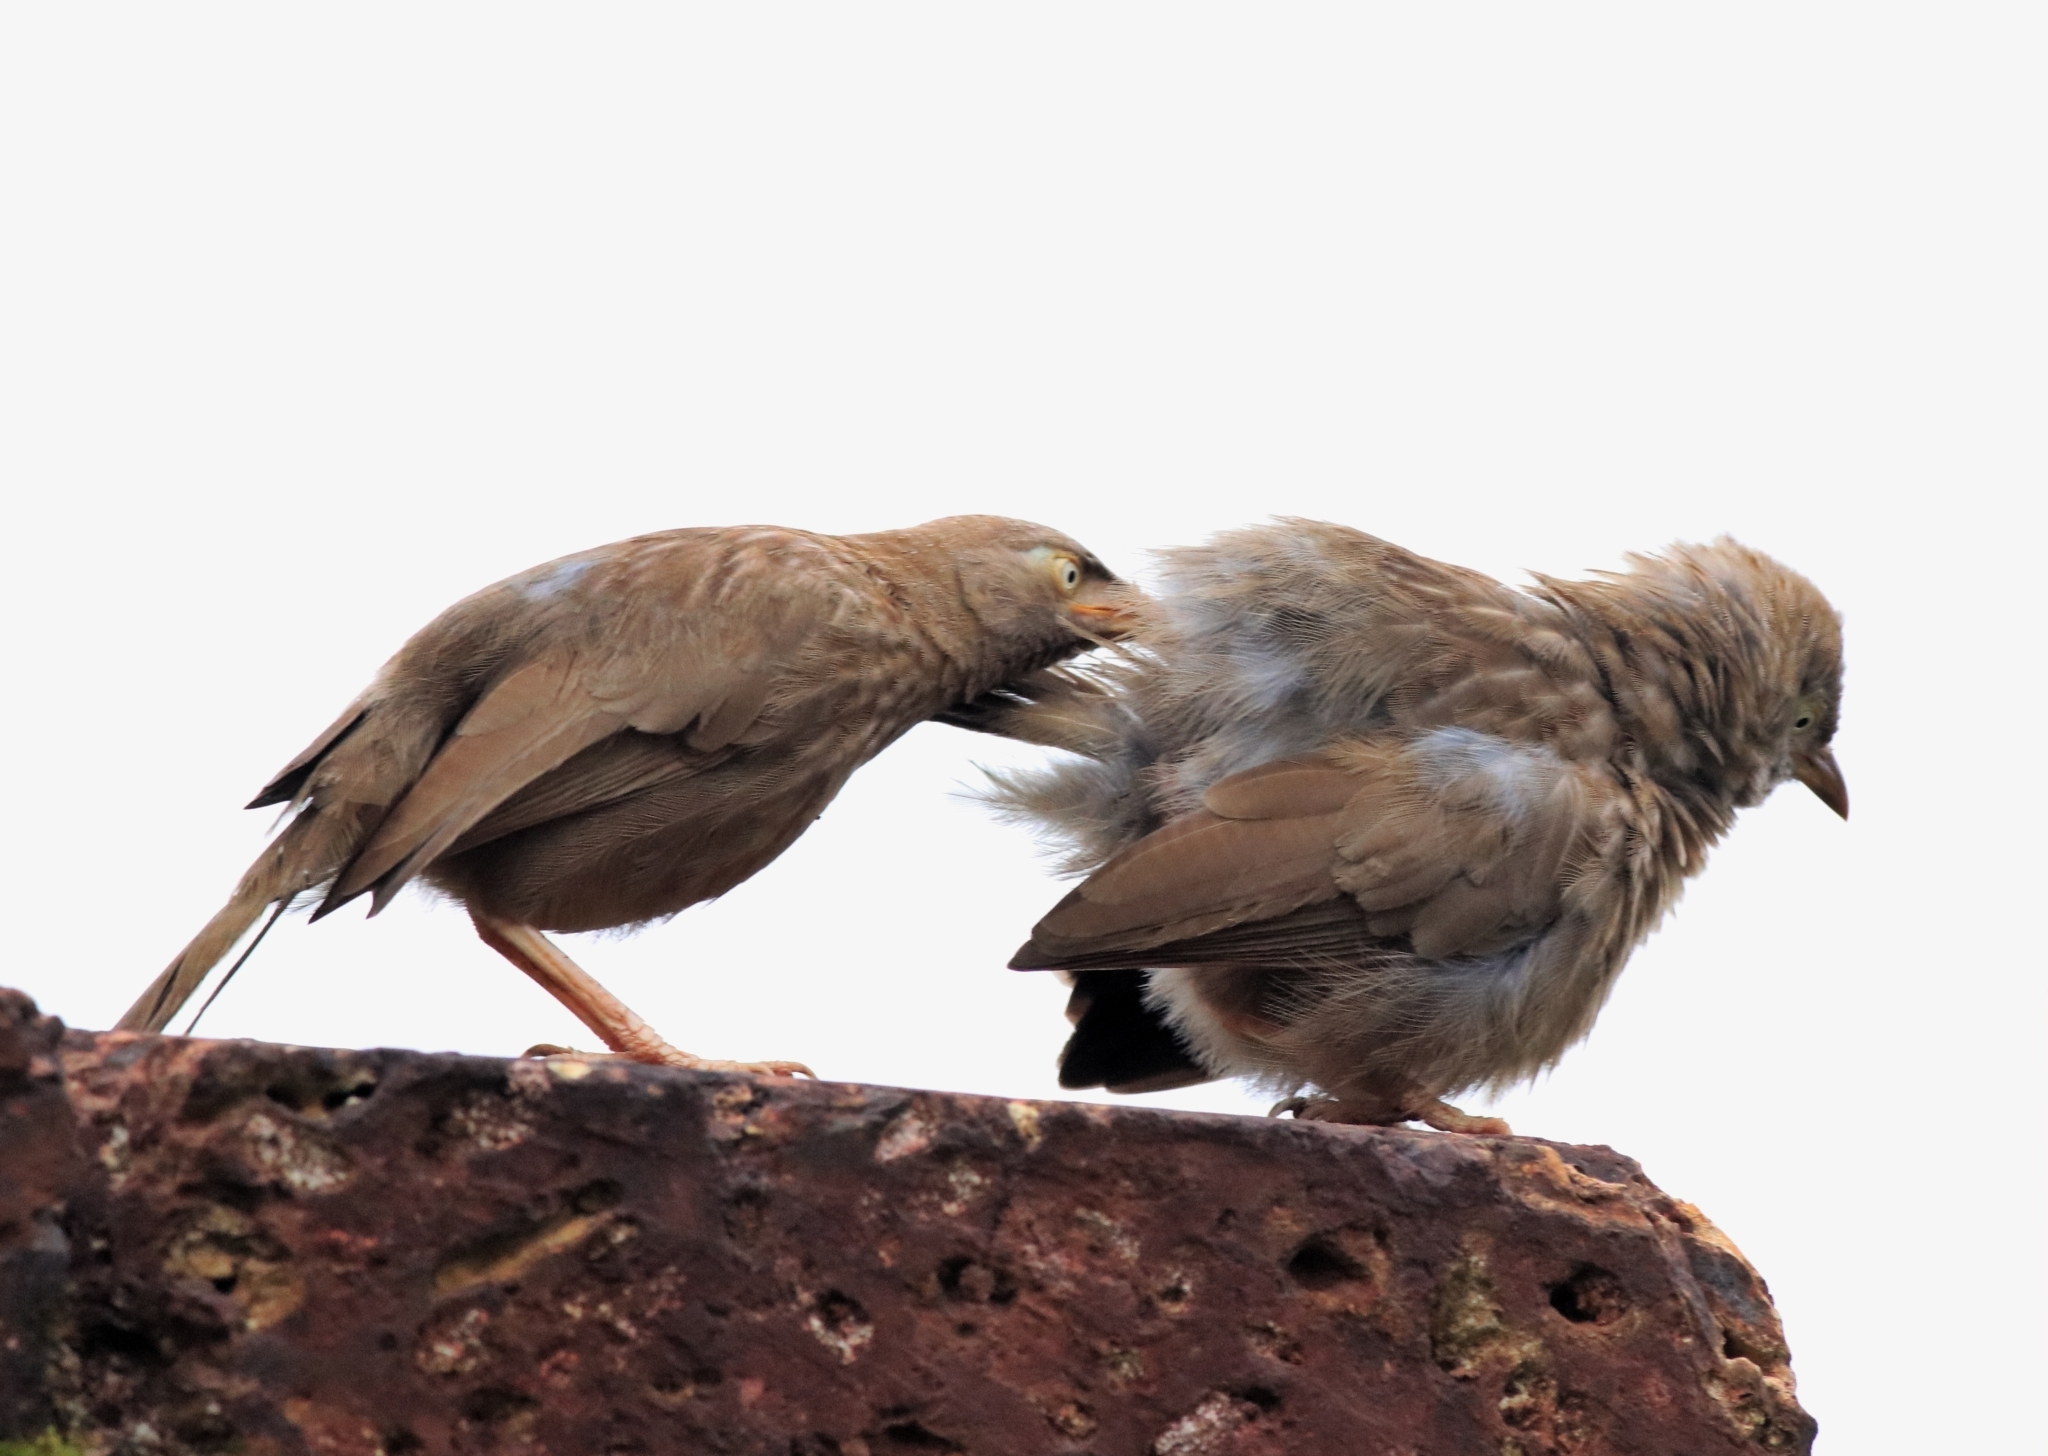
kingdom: Animalia
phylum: Chordata
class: Aves
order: Passeriformes
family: Leiothrichidae
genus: Turdoides
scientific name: Turdoides striata
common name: Jungle babbler
